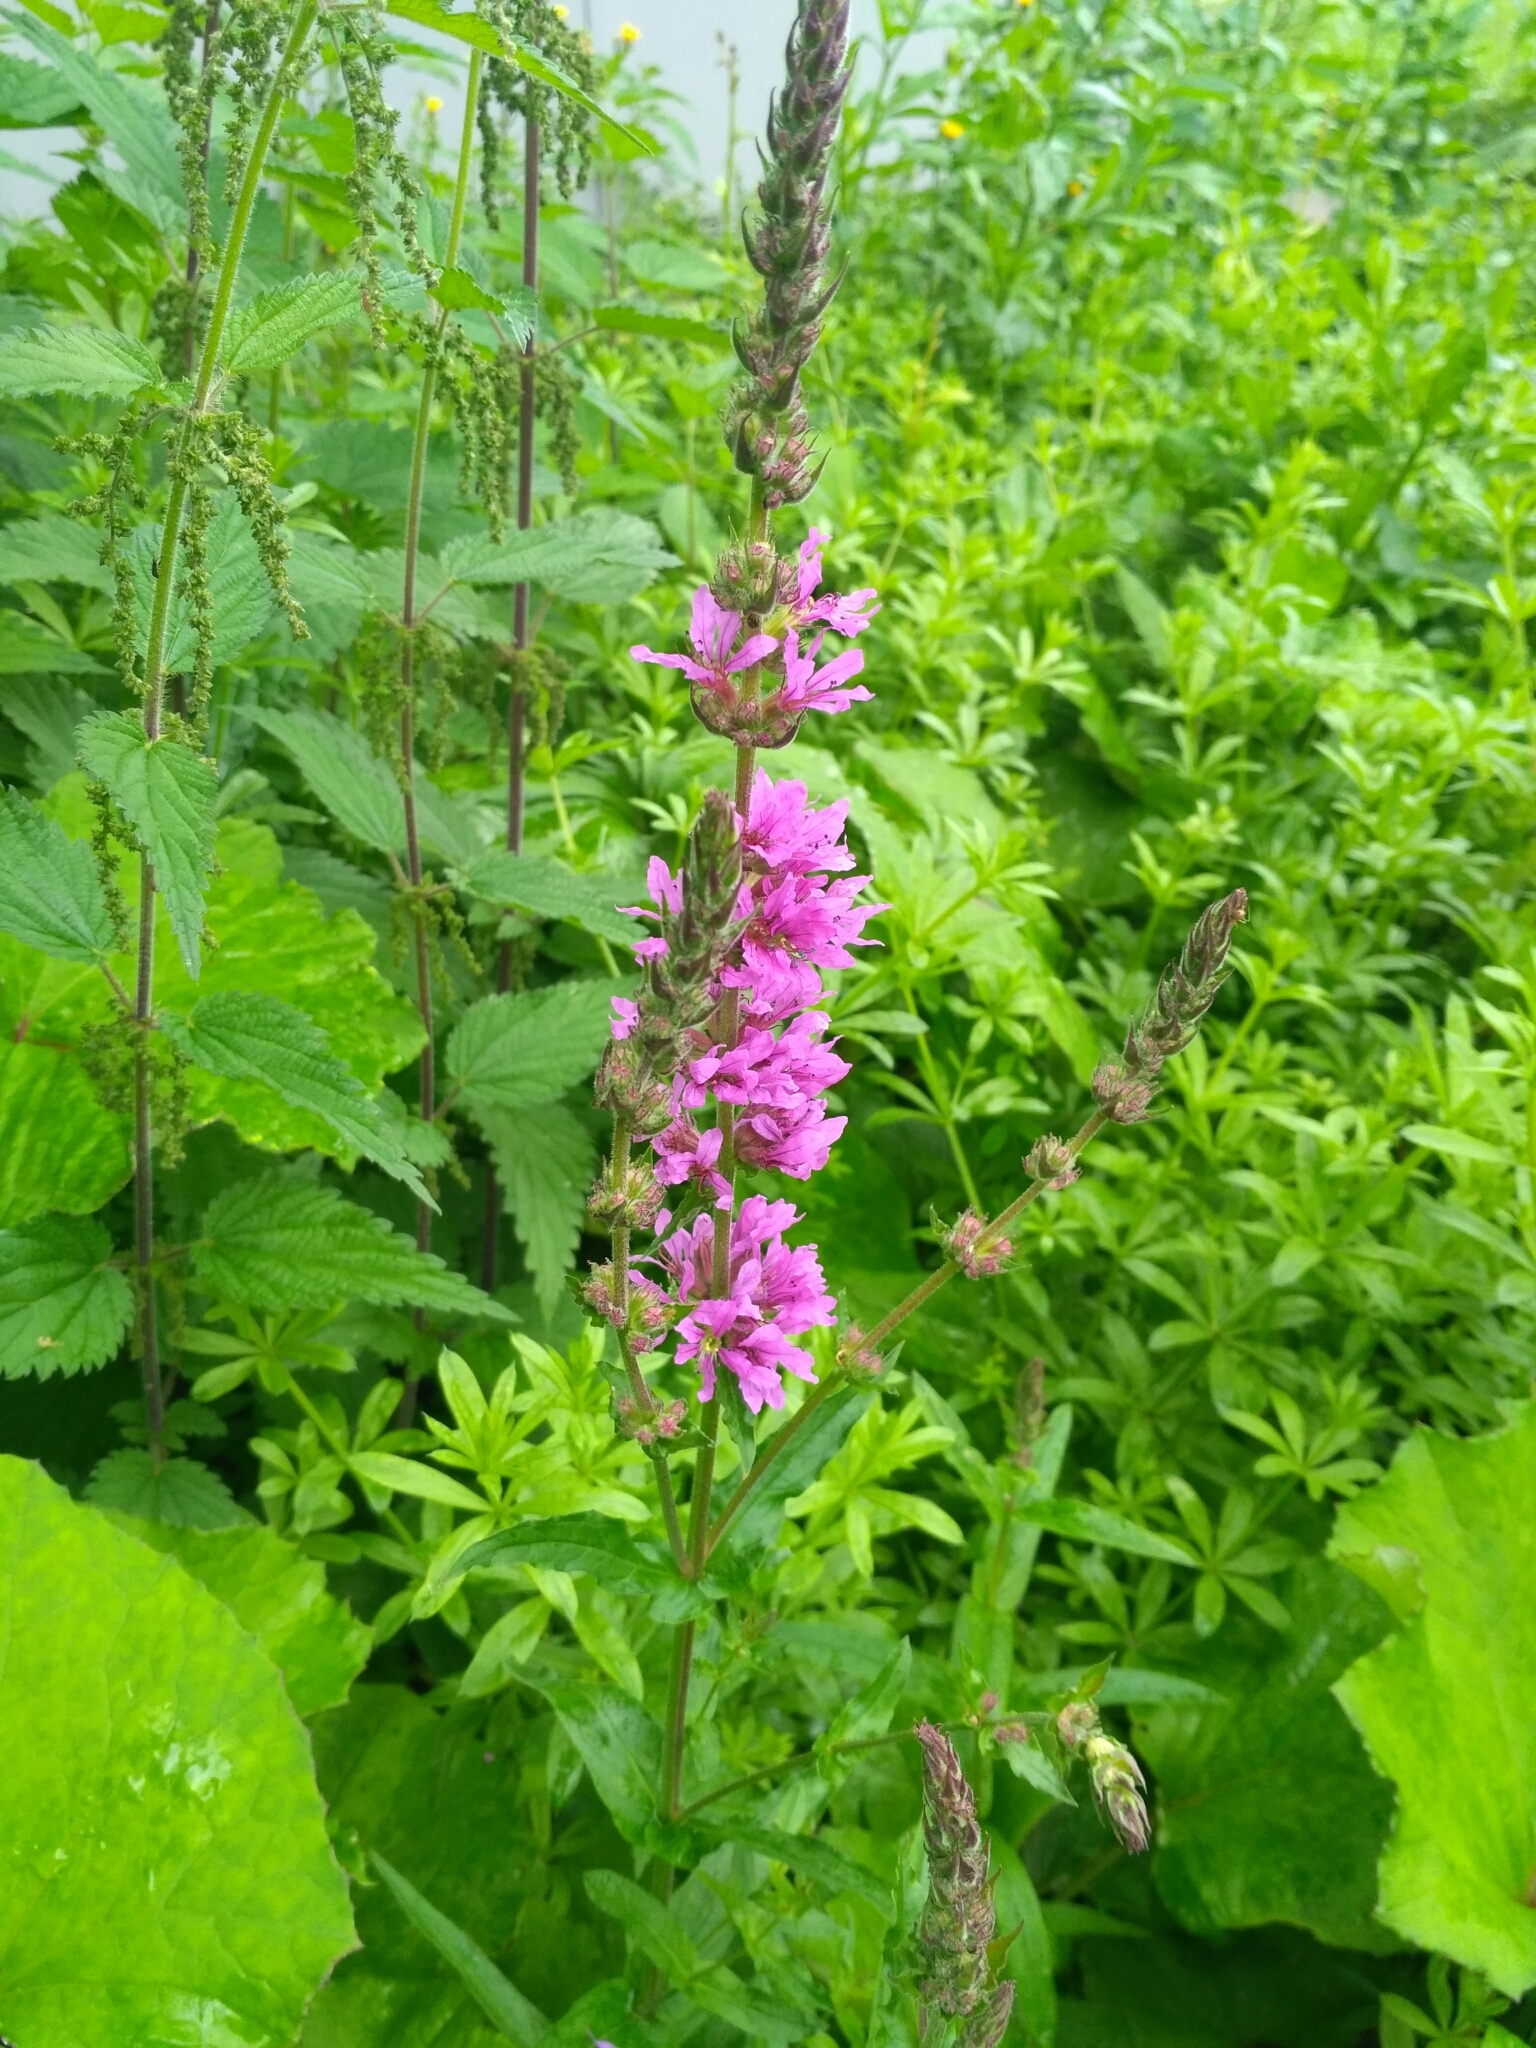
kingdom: Plantae
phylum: Tracheophyta
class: Magnoliopsida
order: Myrtales
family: Lythraceae
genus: Lythrum
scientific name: Lythrum salicaria
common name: Purple loosestrife
